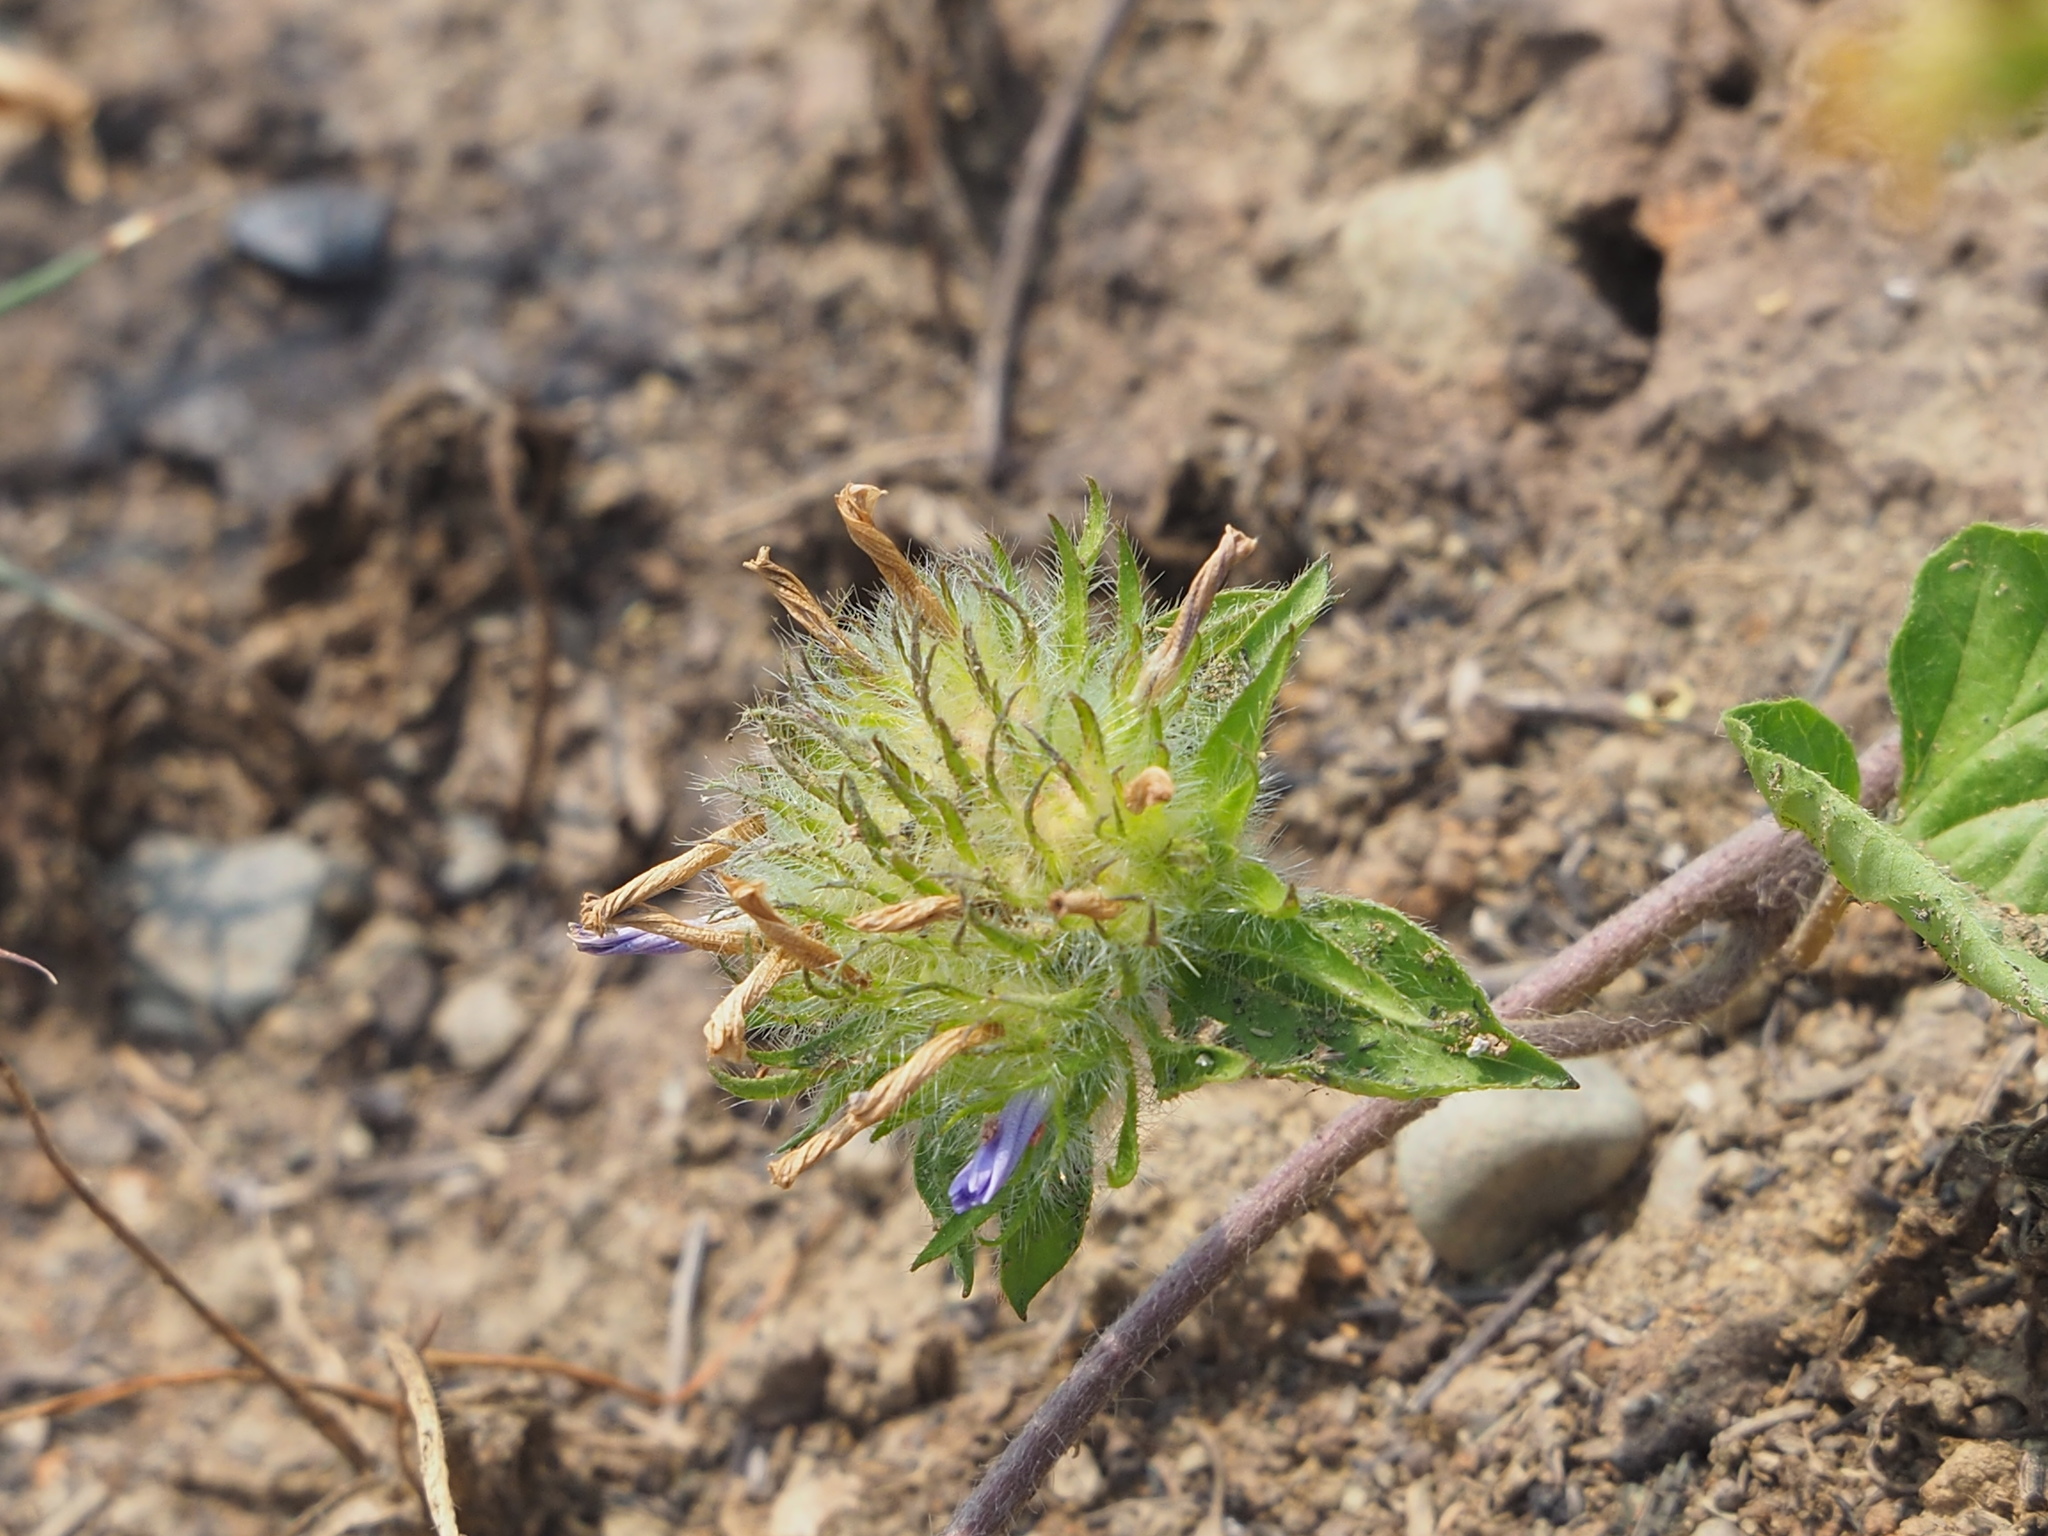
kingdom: Plantae
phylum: Tracheophyta
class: Magnoliopsida
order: Solanales
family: Convolvulaceae
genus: Jacquemontia
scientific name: Jacquemontia tamnifolia
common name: Hairy clustervine
